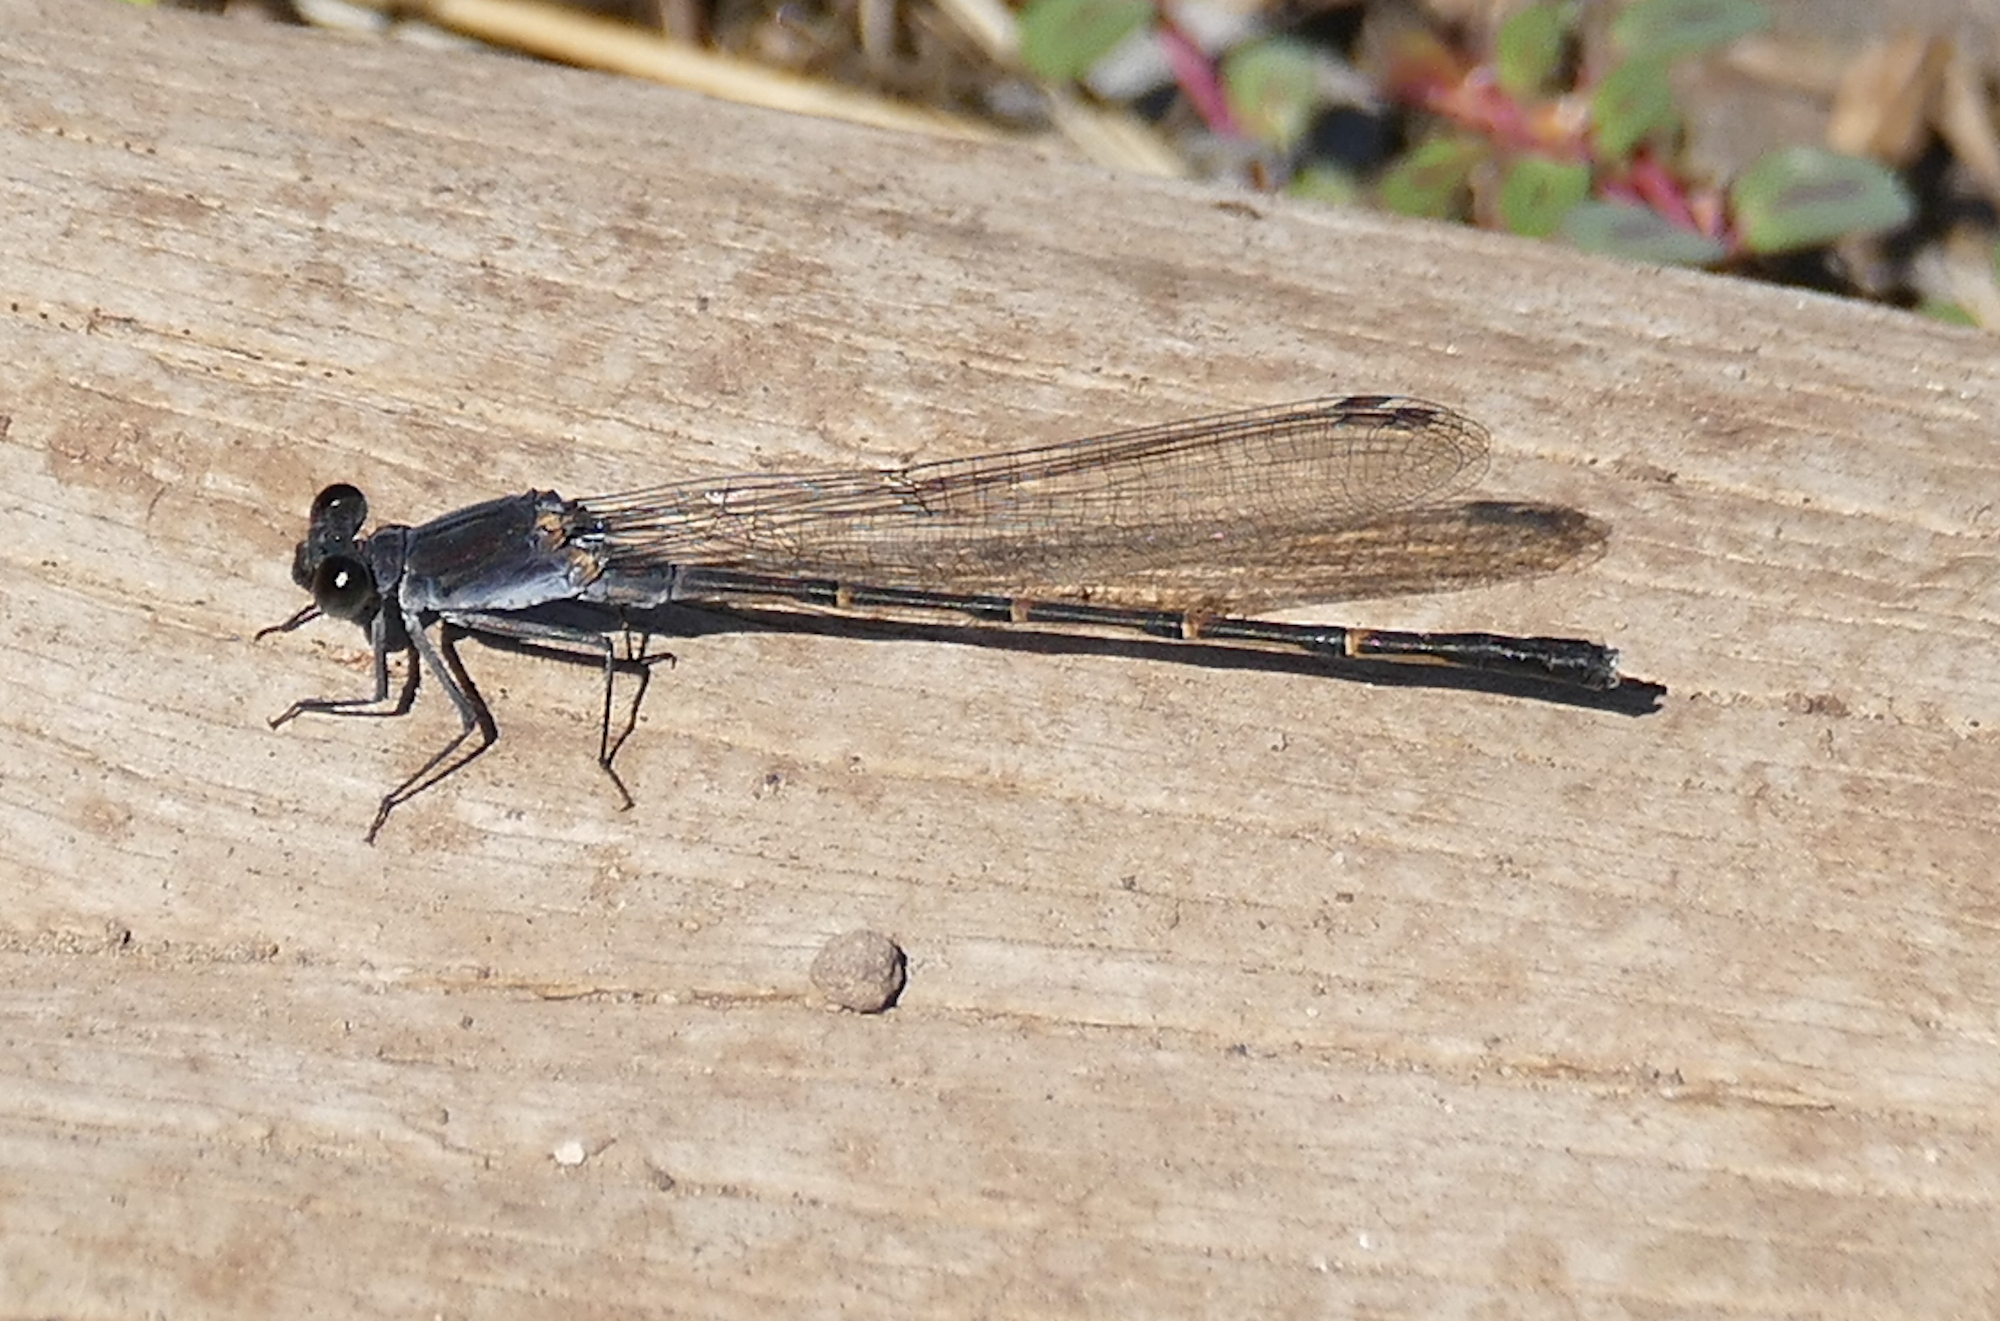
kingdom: Animalia
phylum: Arthropoda
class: Insecta
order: Odonata
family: Coenagrionidae
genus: Argia
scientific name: Argia lugens
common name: Sooty dancer
